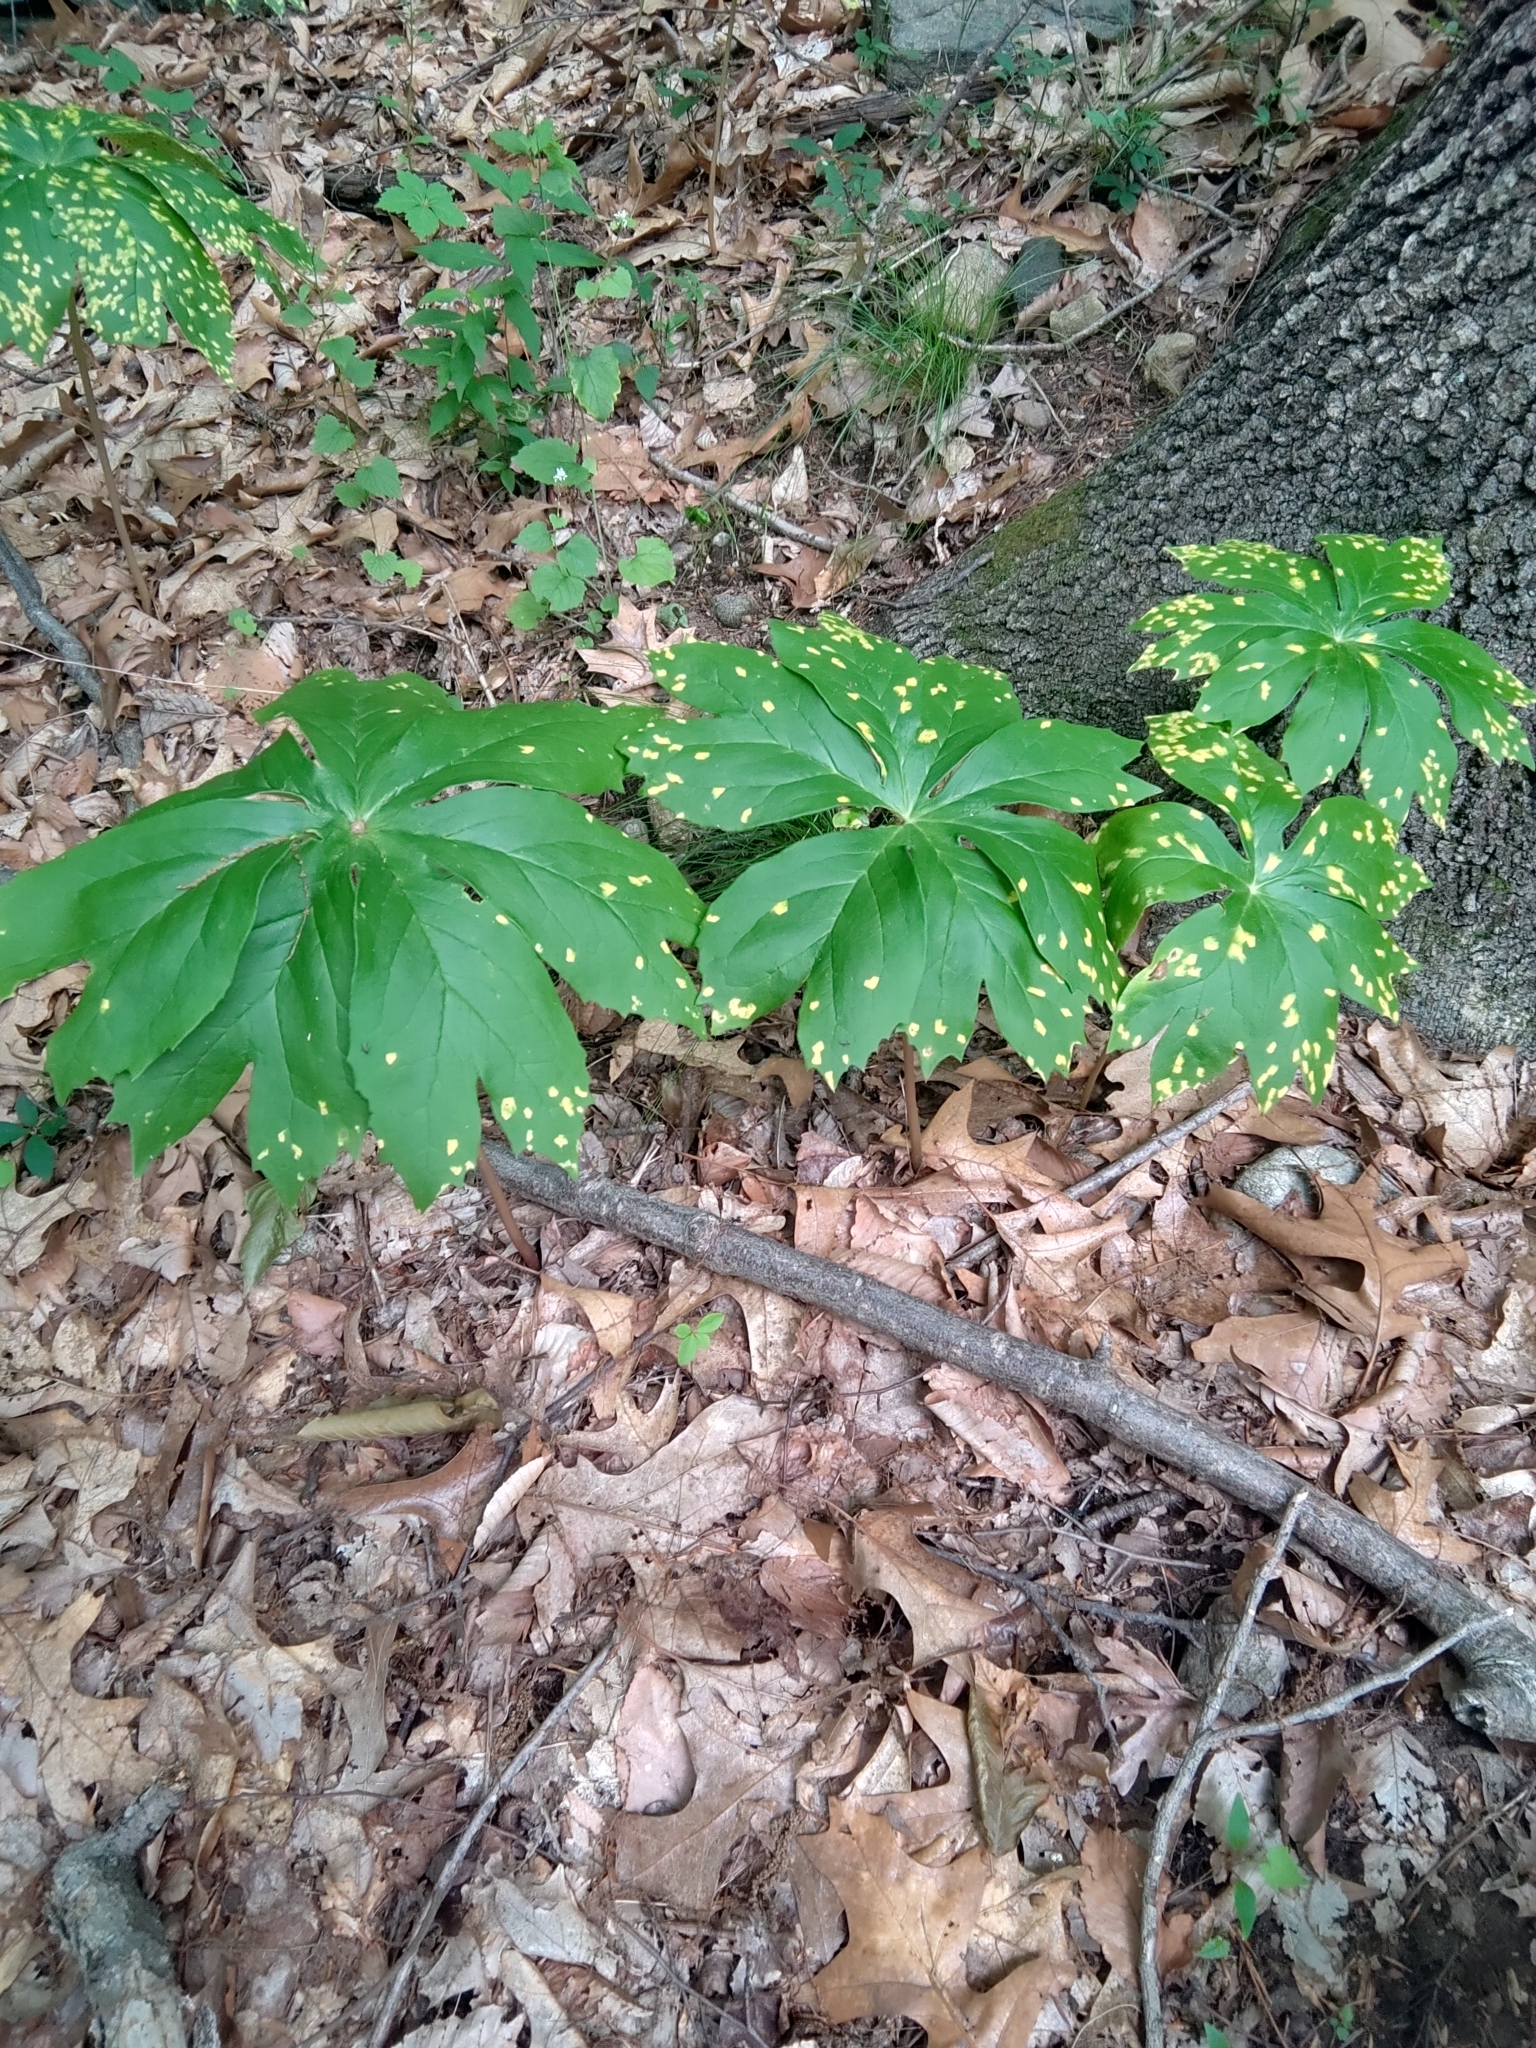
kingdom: Plantae
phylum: Tracheophyta
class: Magnoliopsida
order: Ranunculales
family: Berberidaceae
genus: Podophyllum
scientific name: Podophyllum peltatum
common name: Wild mandrake
